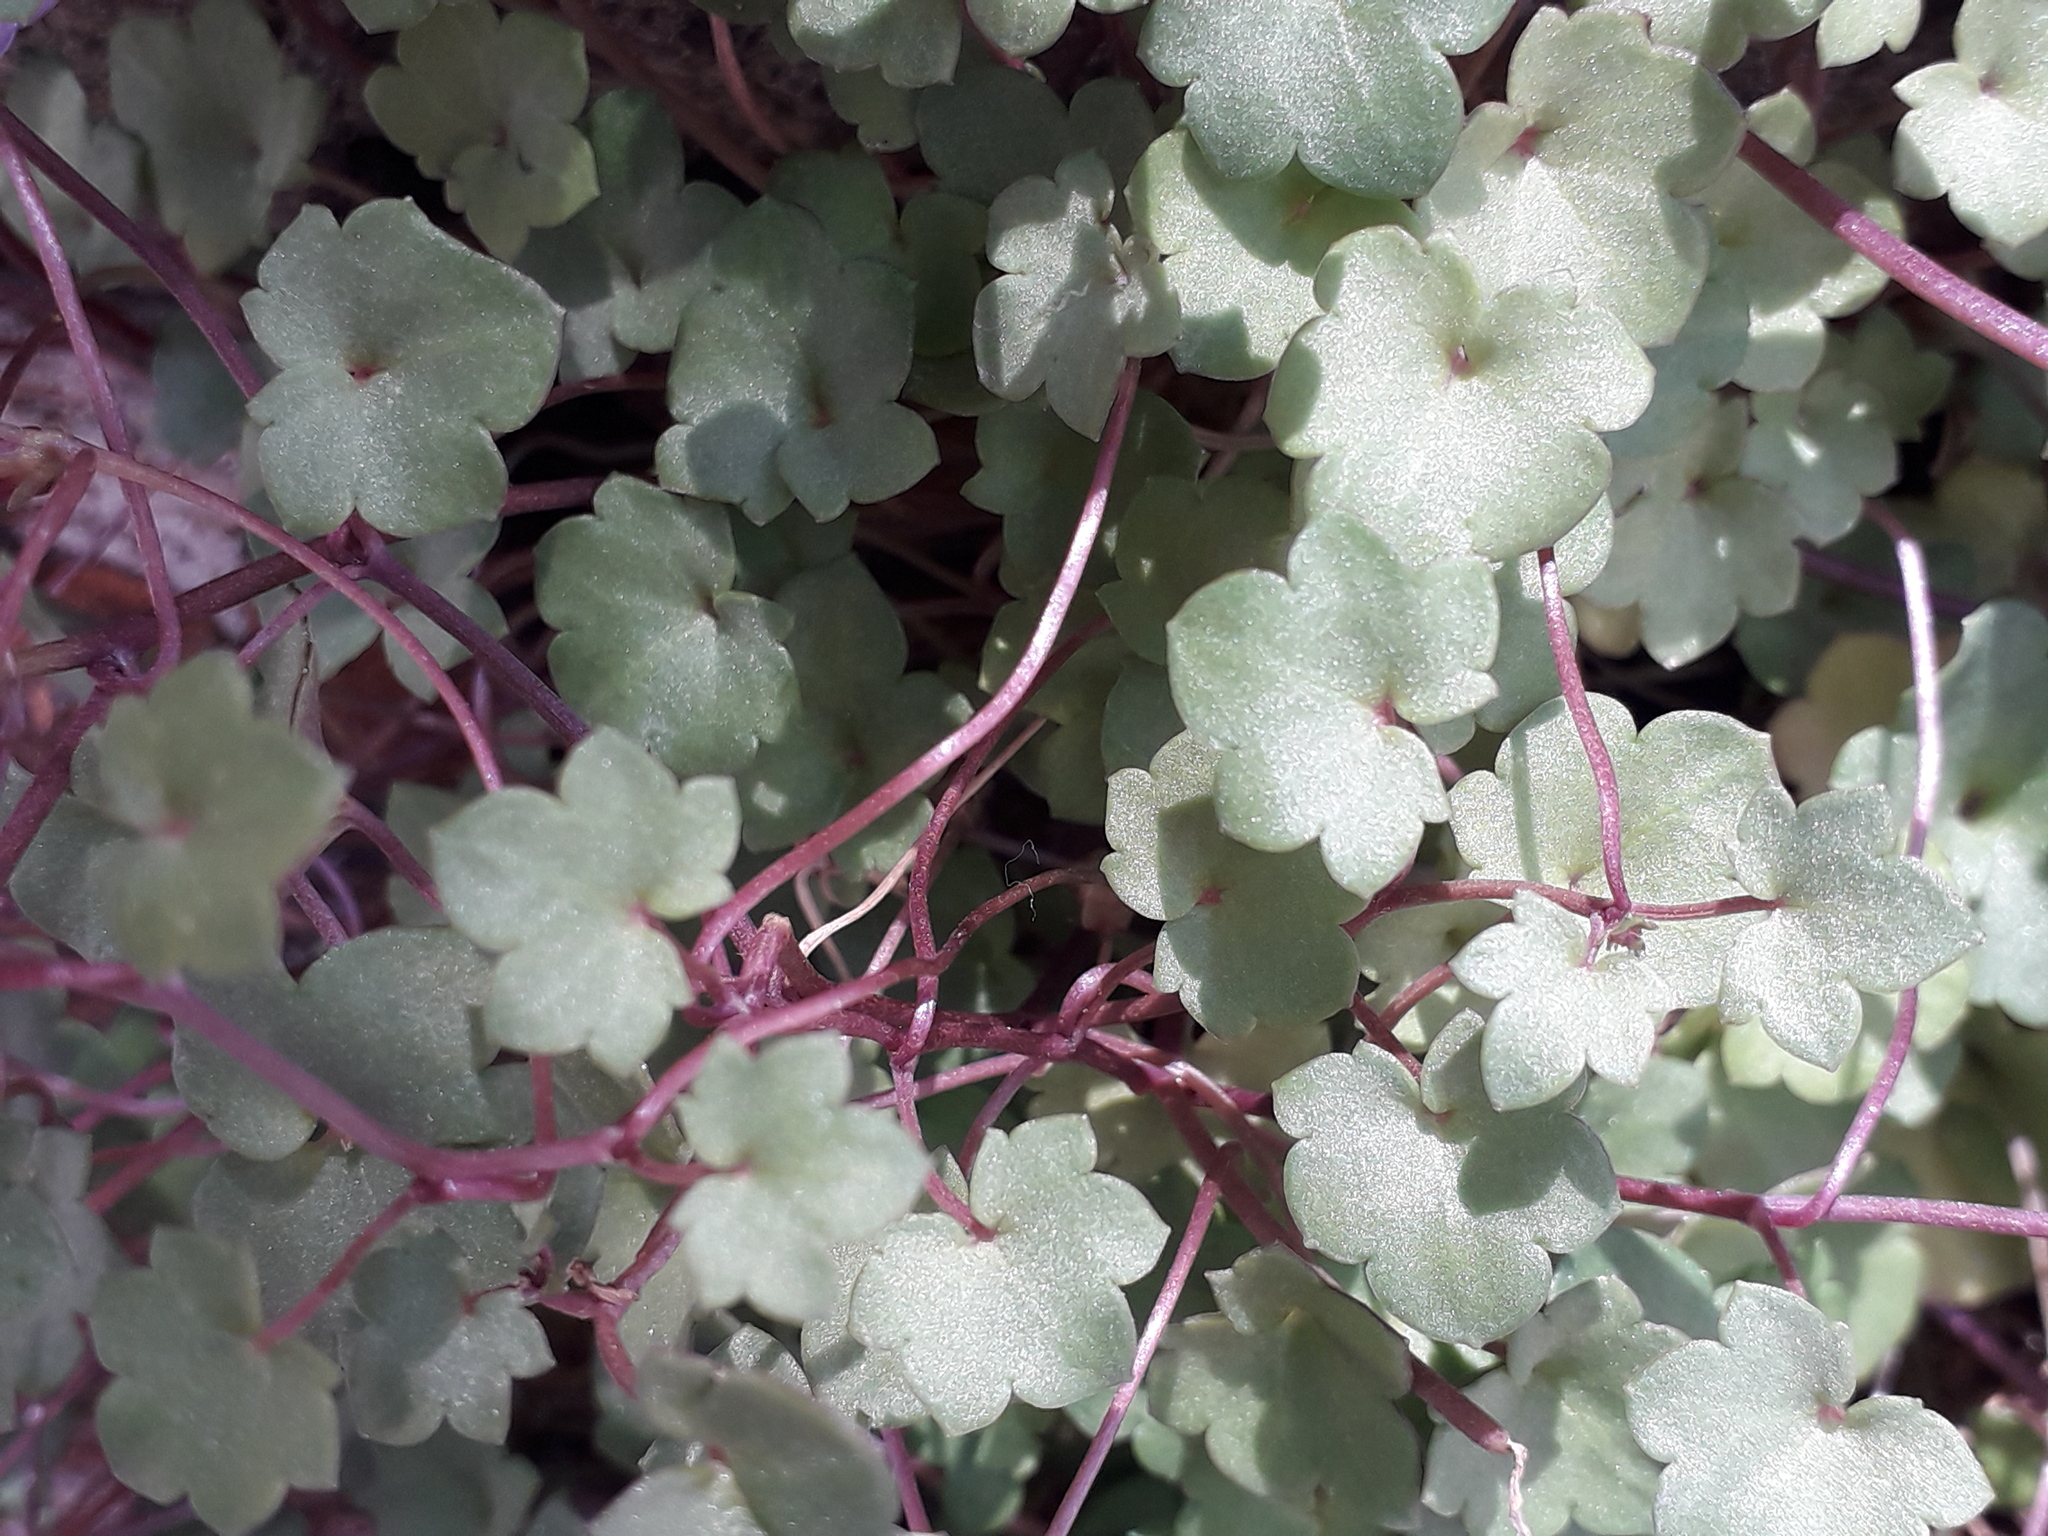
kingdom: Plantae
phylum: Tracheophyta
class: Magnoliopsida
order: Lamiales
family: Plantaginaceae
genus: Cymbalaria
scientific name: Cymbalaria muralis
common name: Ivy-leaved toadflax
